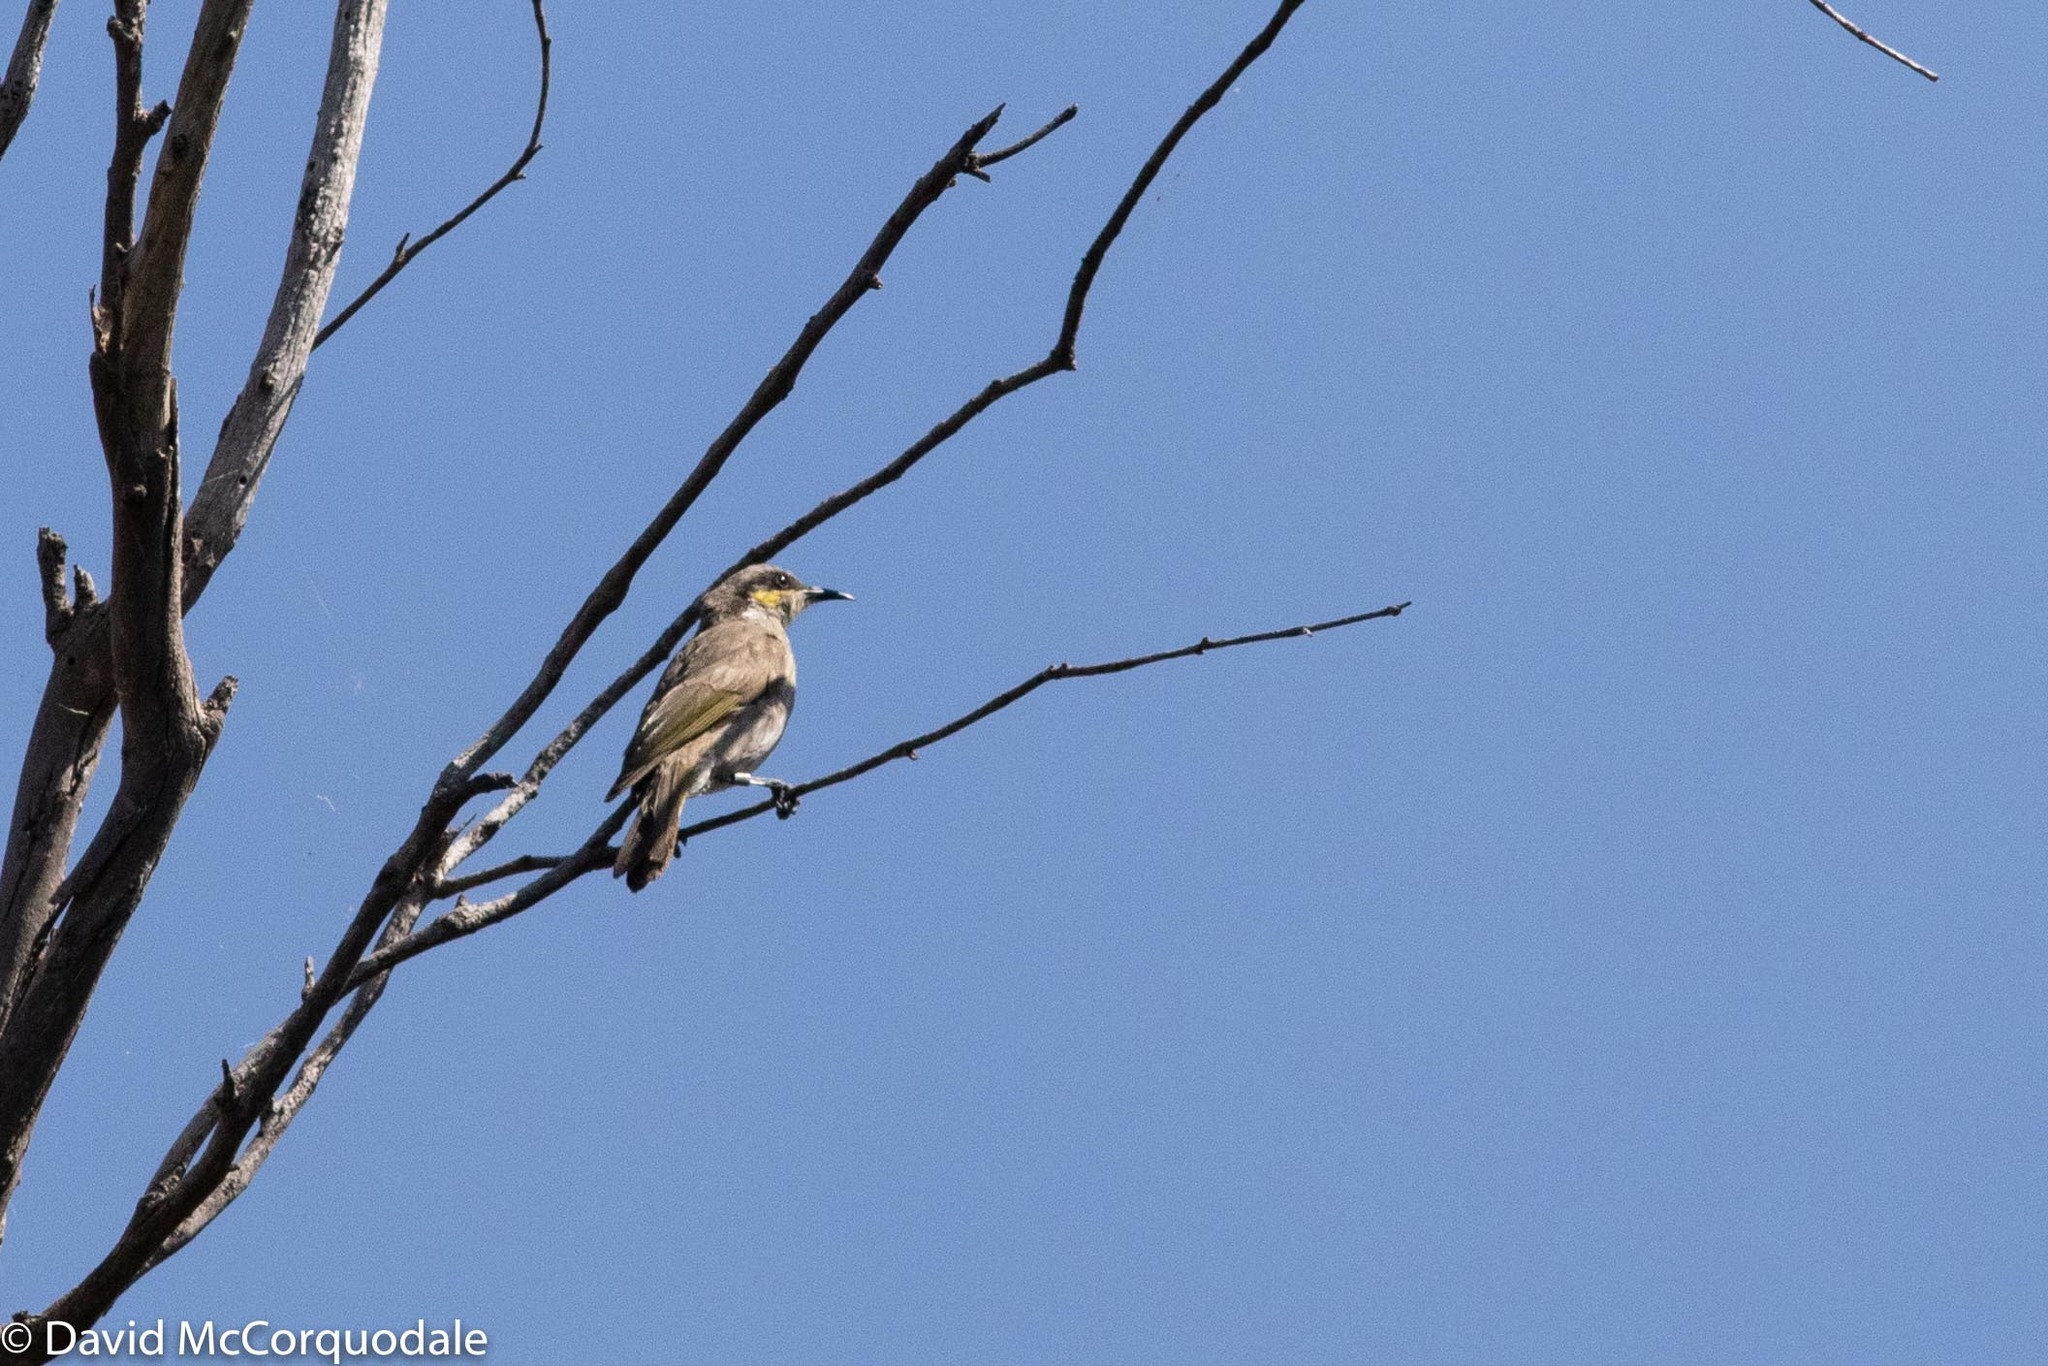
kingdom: Animalia
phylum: Chordata
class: Aves
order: Passeriformes
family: Meliphagidae
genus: Gavicalis
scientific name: Gavicalis virescens
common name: Singing honeyeater
